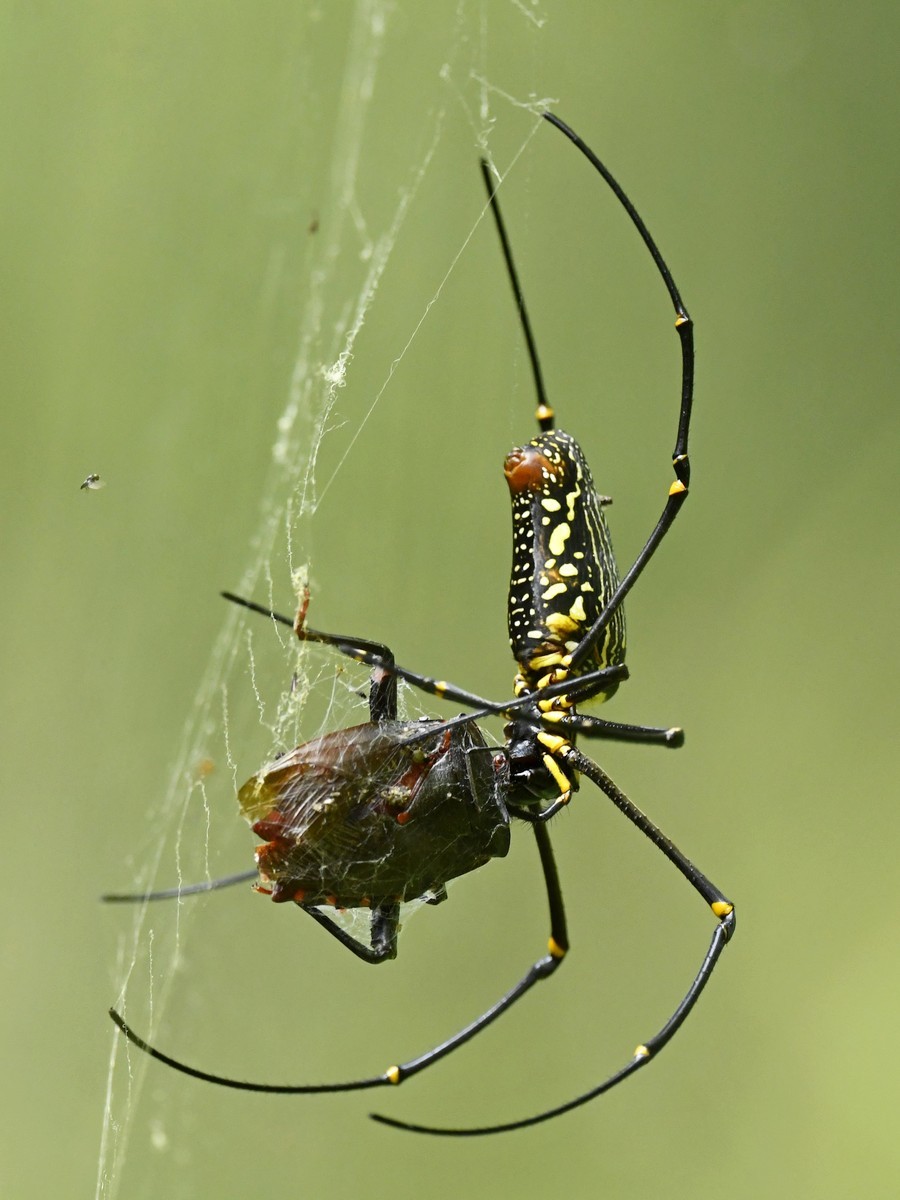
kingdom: Animalia
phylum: Arthropoda
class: Arachnida
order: Araneae
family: Araneidae
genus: Nephila
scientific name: Nephila pilipes
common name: Giant golden orb weaver
